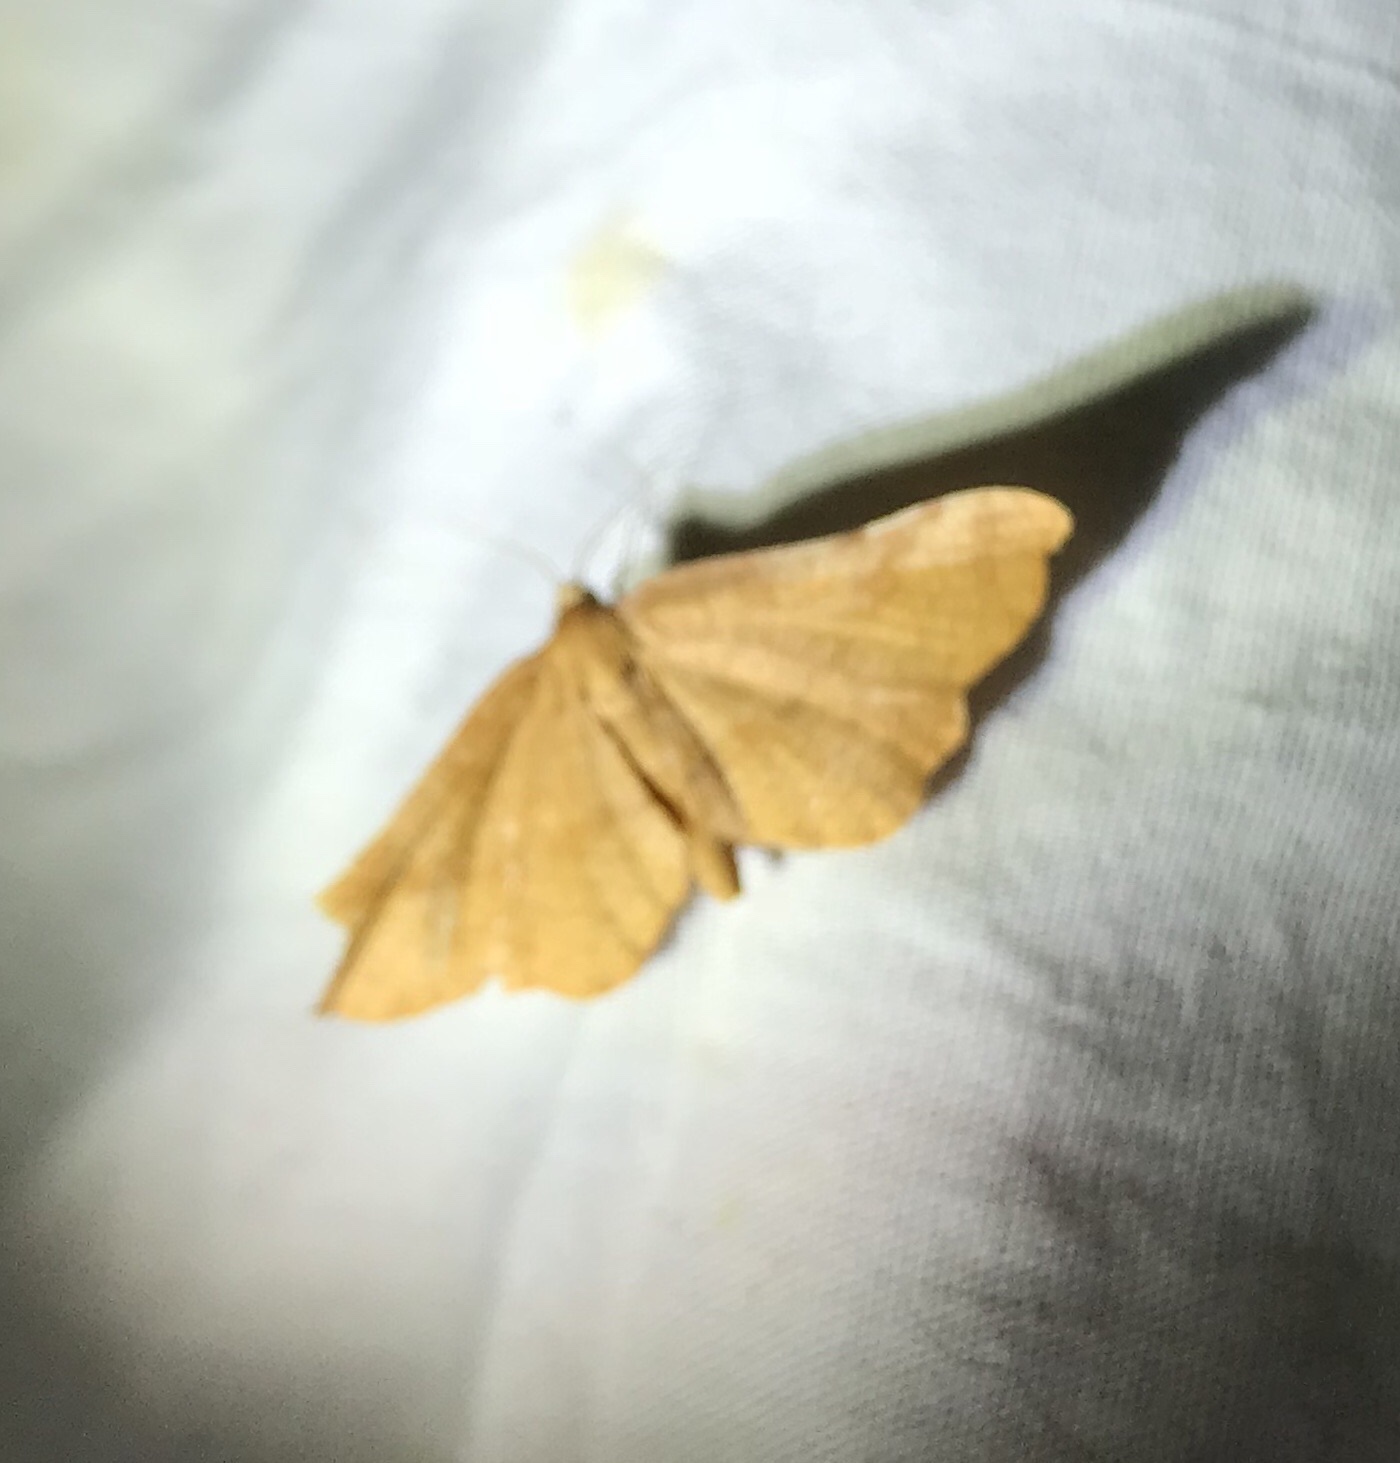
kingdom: Animalia
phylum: Arthropoda
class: Insecta
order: Lepidoptera
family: Thyrididae
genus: Morova
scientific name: Morova subfasciata
